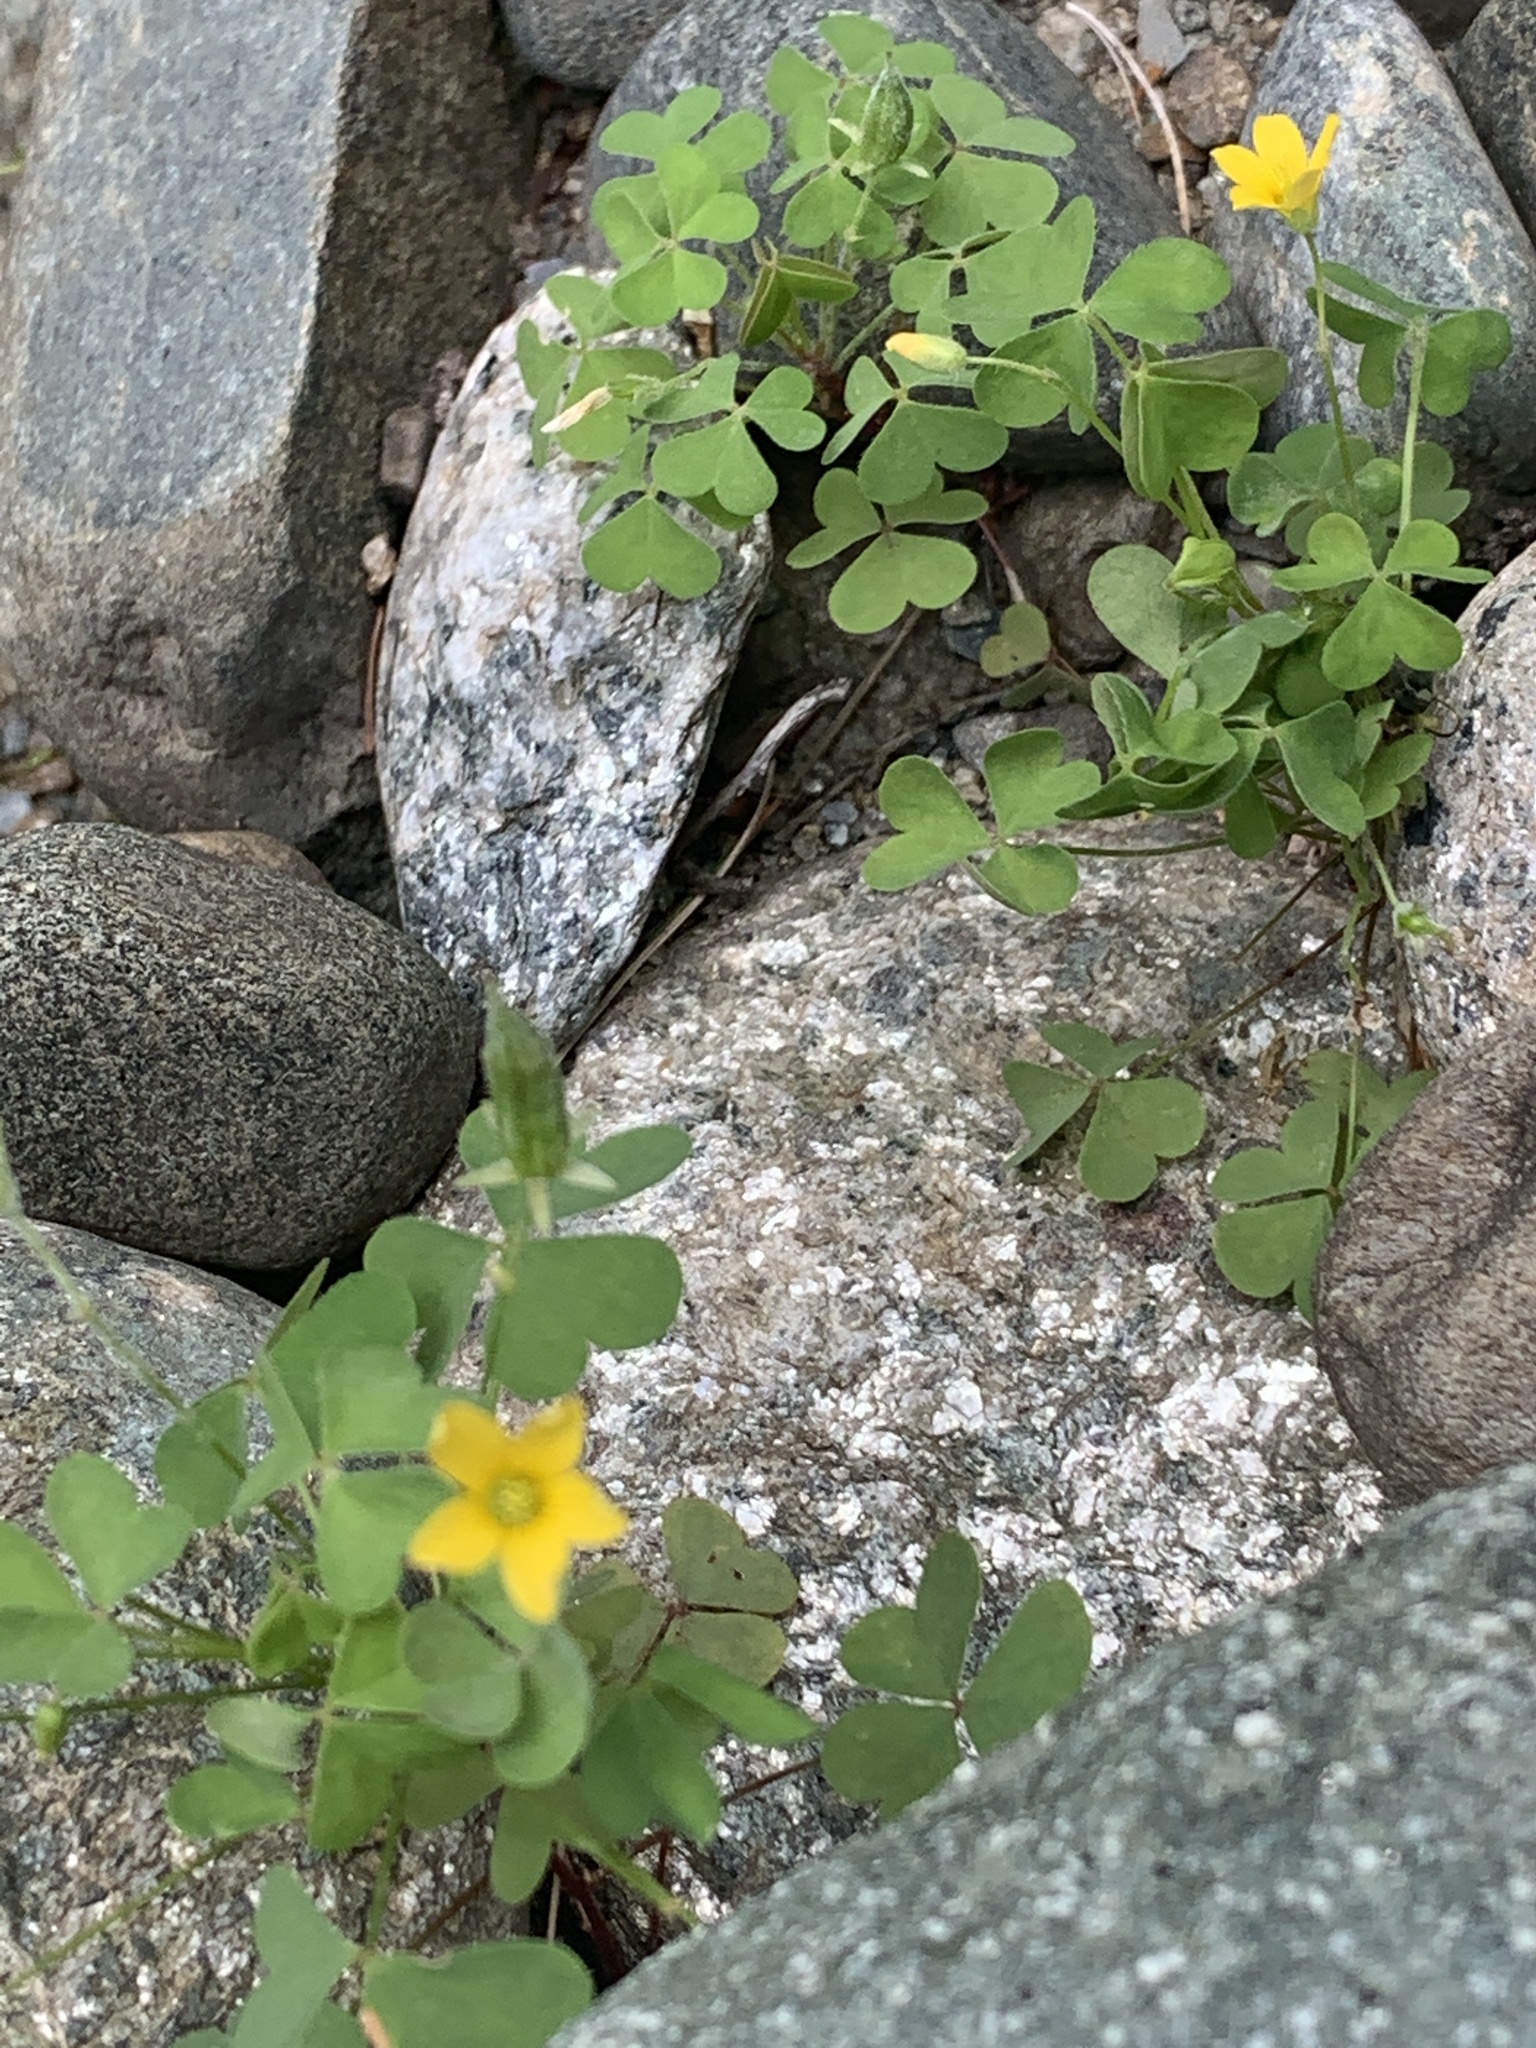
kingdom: Plantae
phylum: Tracheophyta
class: Magnoliopsida
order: Oxalidales
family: Oxalidaceae
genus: Oxalis
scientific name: Oxalis stricta
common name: Upright yellow-sorrel
